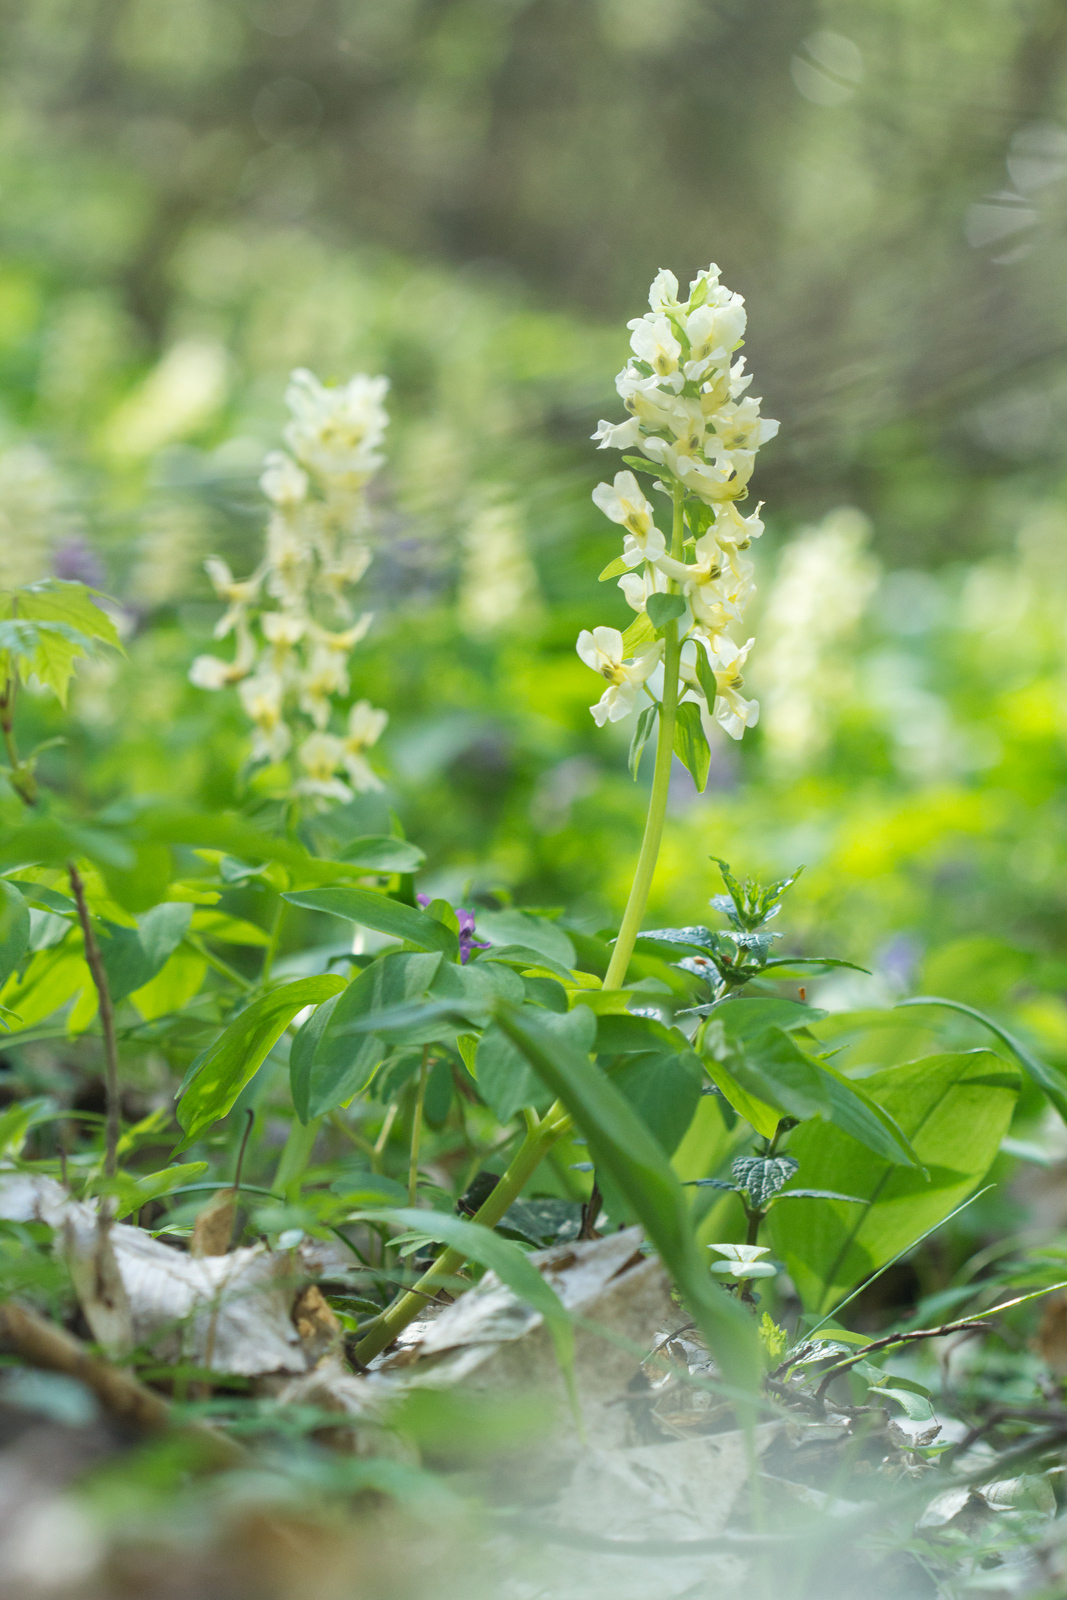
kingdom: Plantae
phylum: Tracheophyta
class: Magnoliopsida
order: Ranunculales
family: Papaveraceae
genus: Corydalis
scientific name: Corydalis cava
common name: Hollowroot
